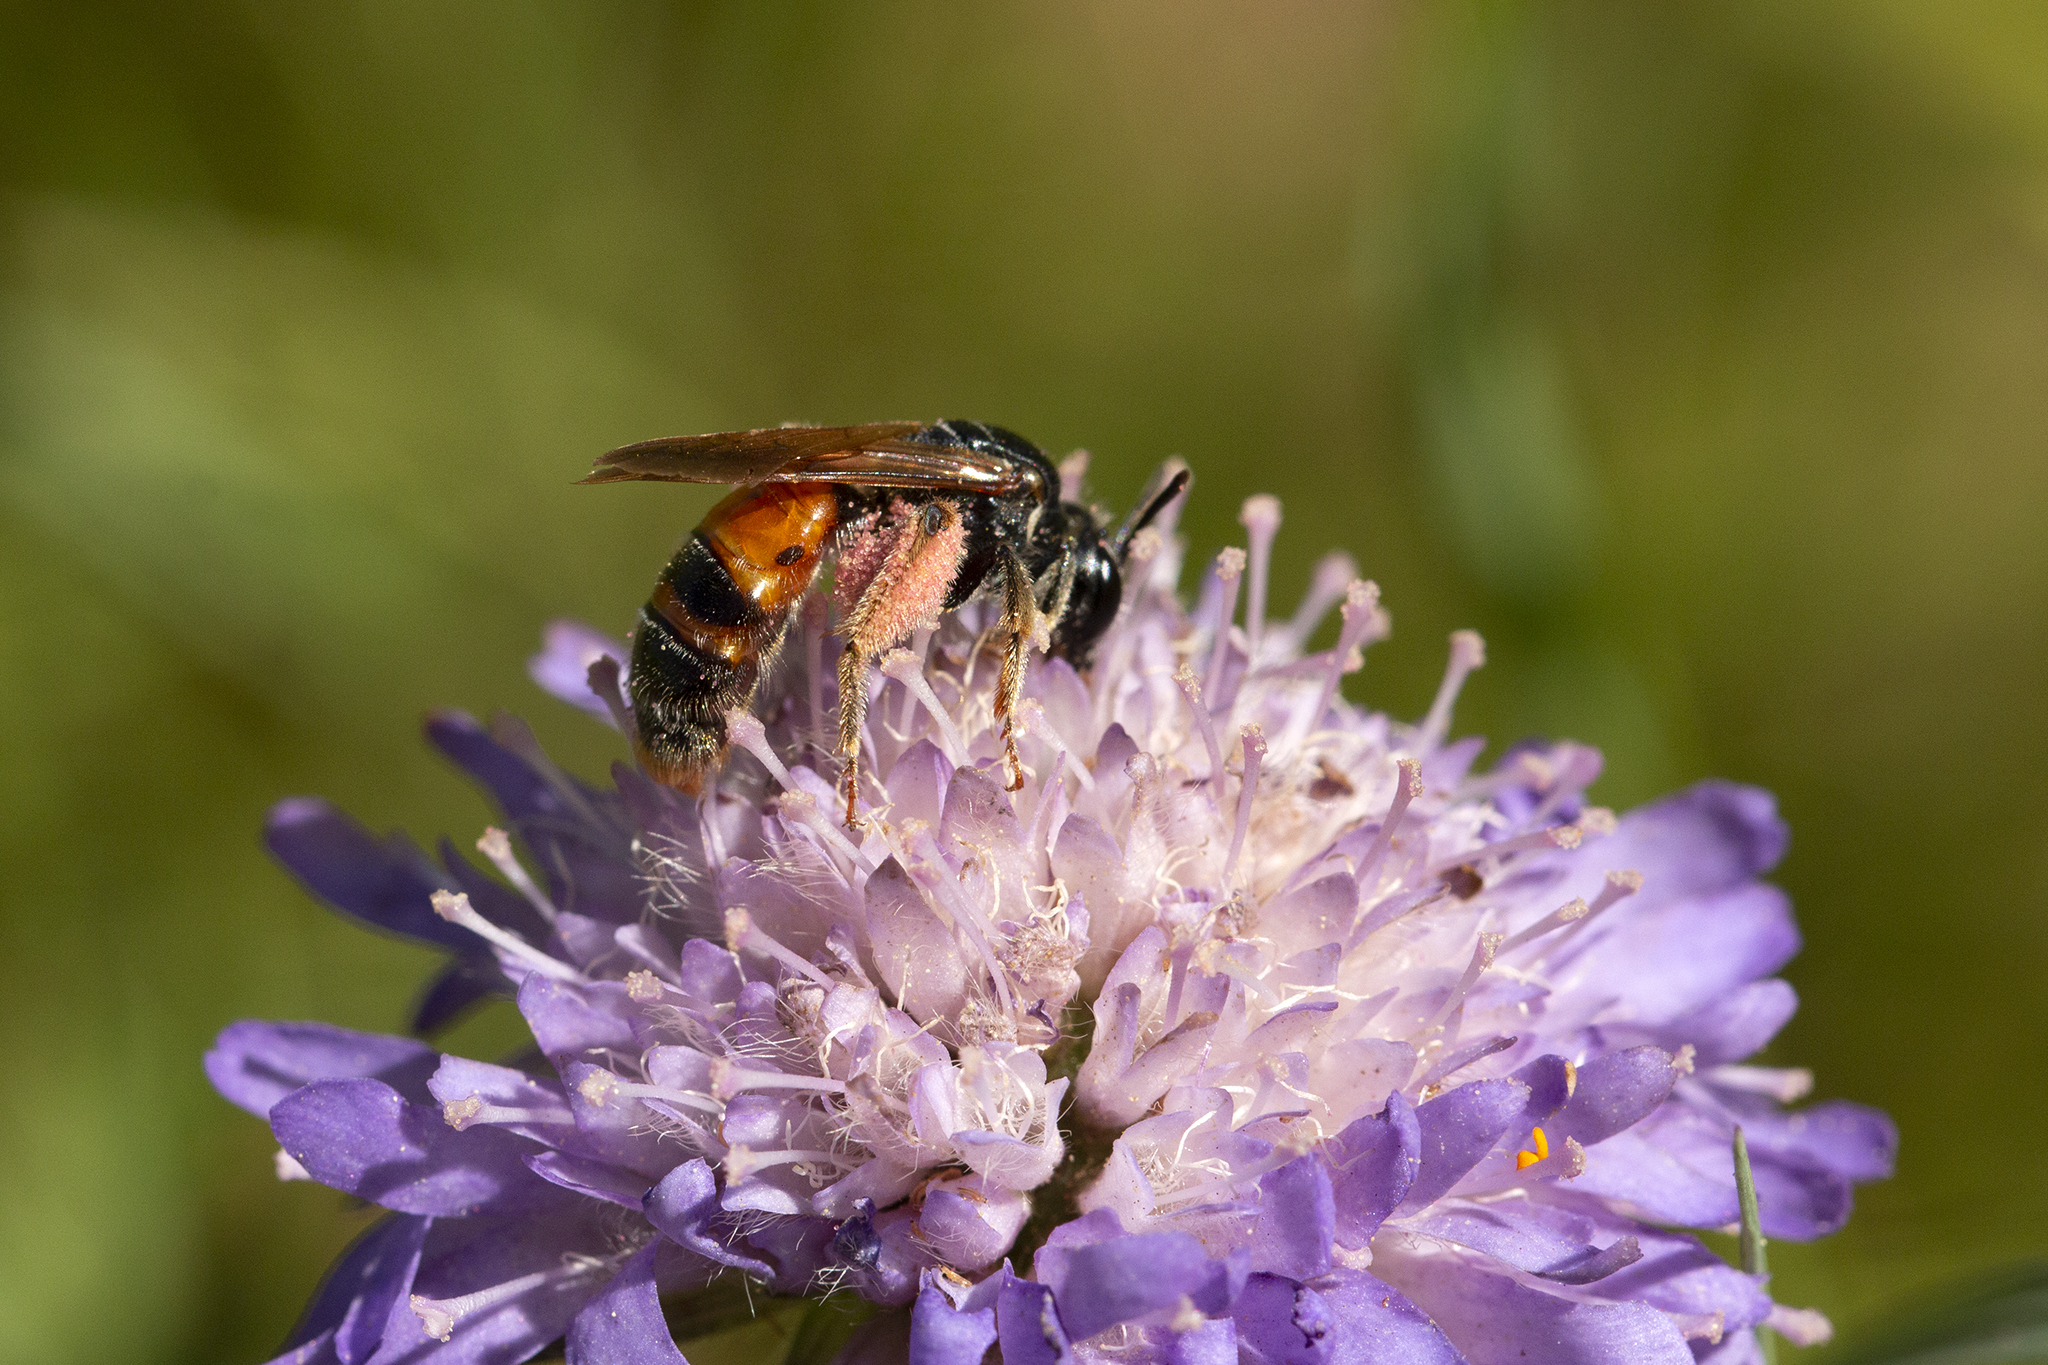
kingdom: Animalia
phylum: Arthropoda
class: Insecta
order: Hymenoptera
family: Andrenidae
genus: Andrena
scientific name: Andrena hattorfiana
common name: Large scabious mining bee
